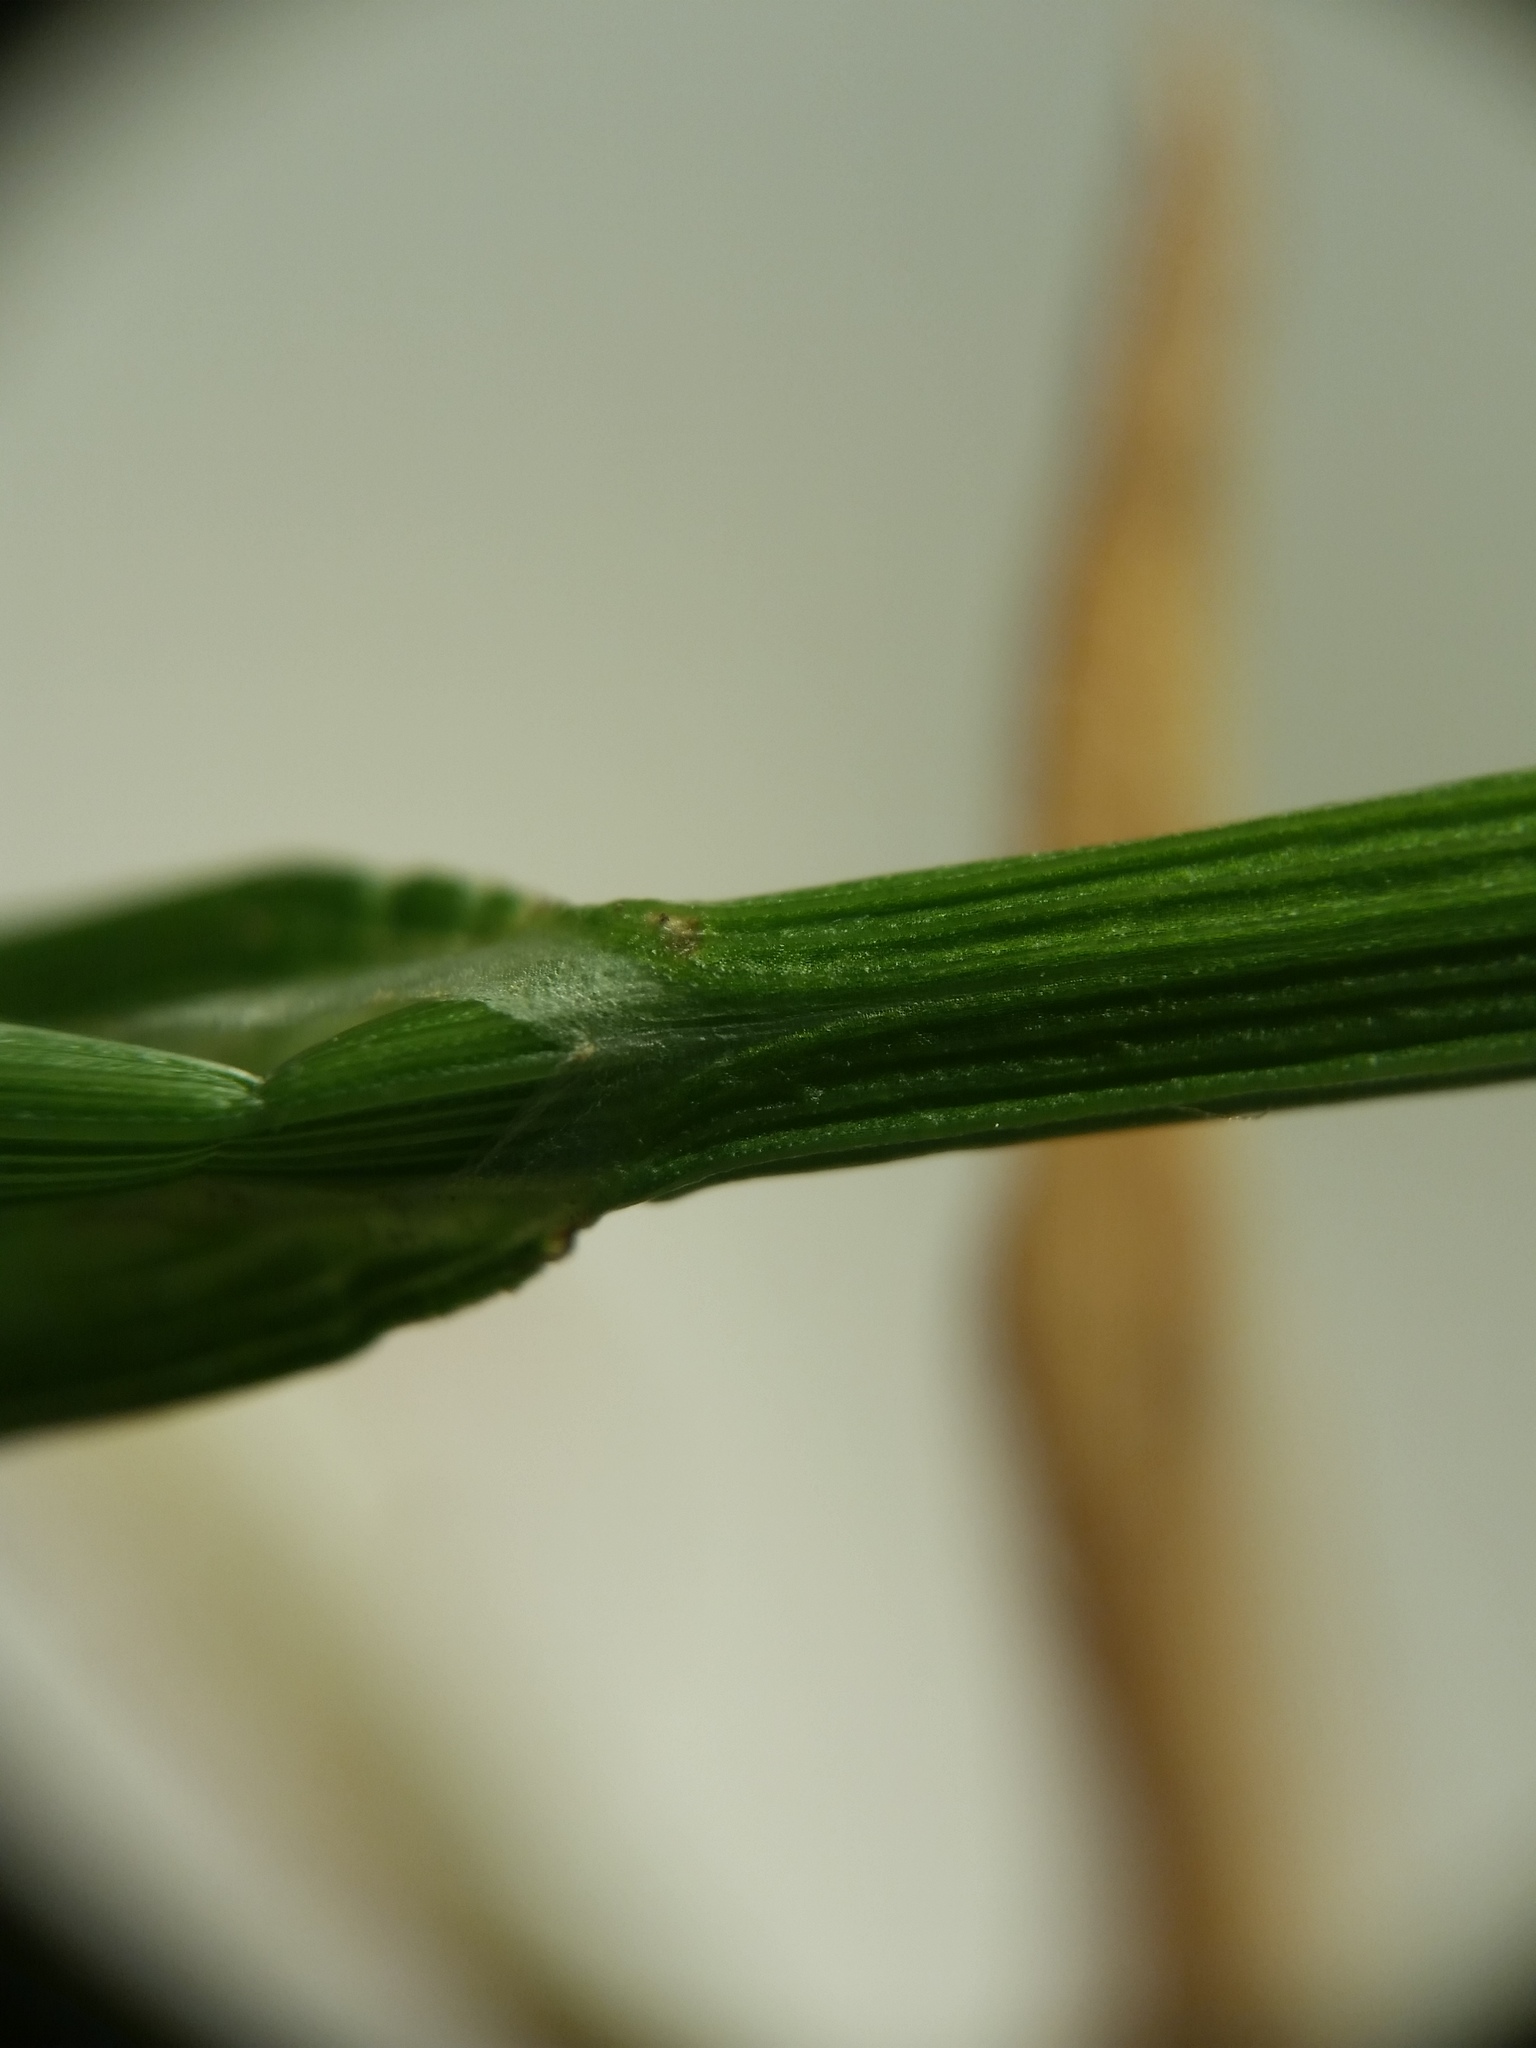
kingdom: Plantae
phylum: Tracheophyta
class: Liliopsida
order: Poales
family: Cyperaceae
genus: Carex
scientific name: Carex albolutescens
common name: Freenish white sedge
